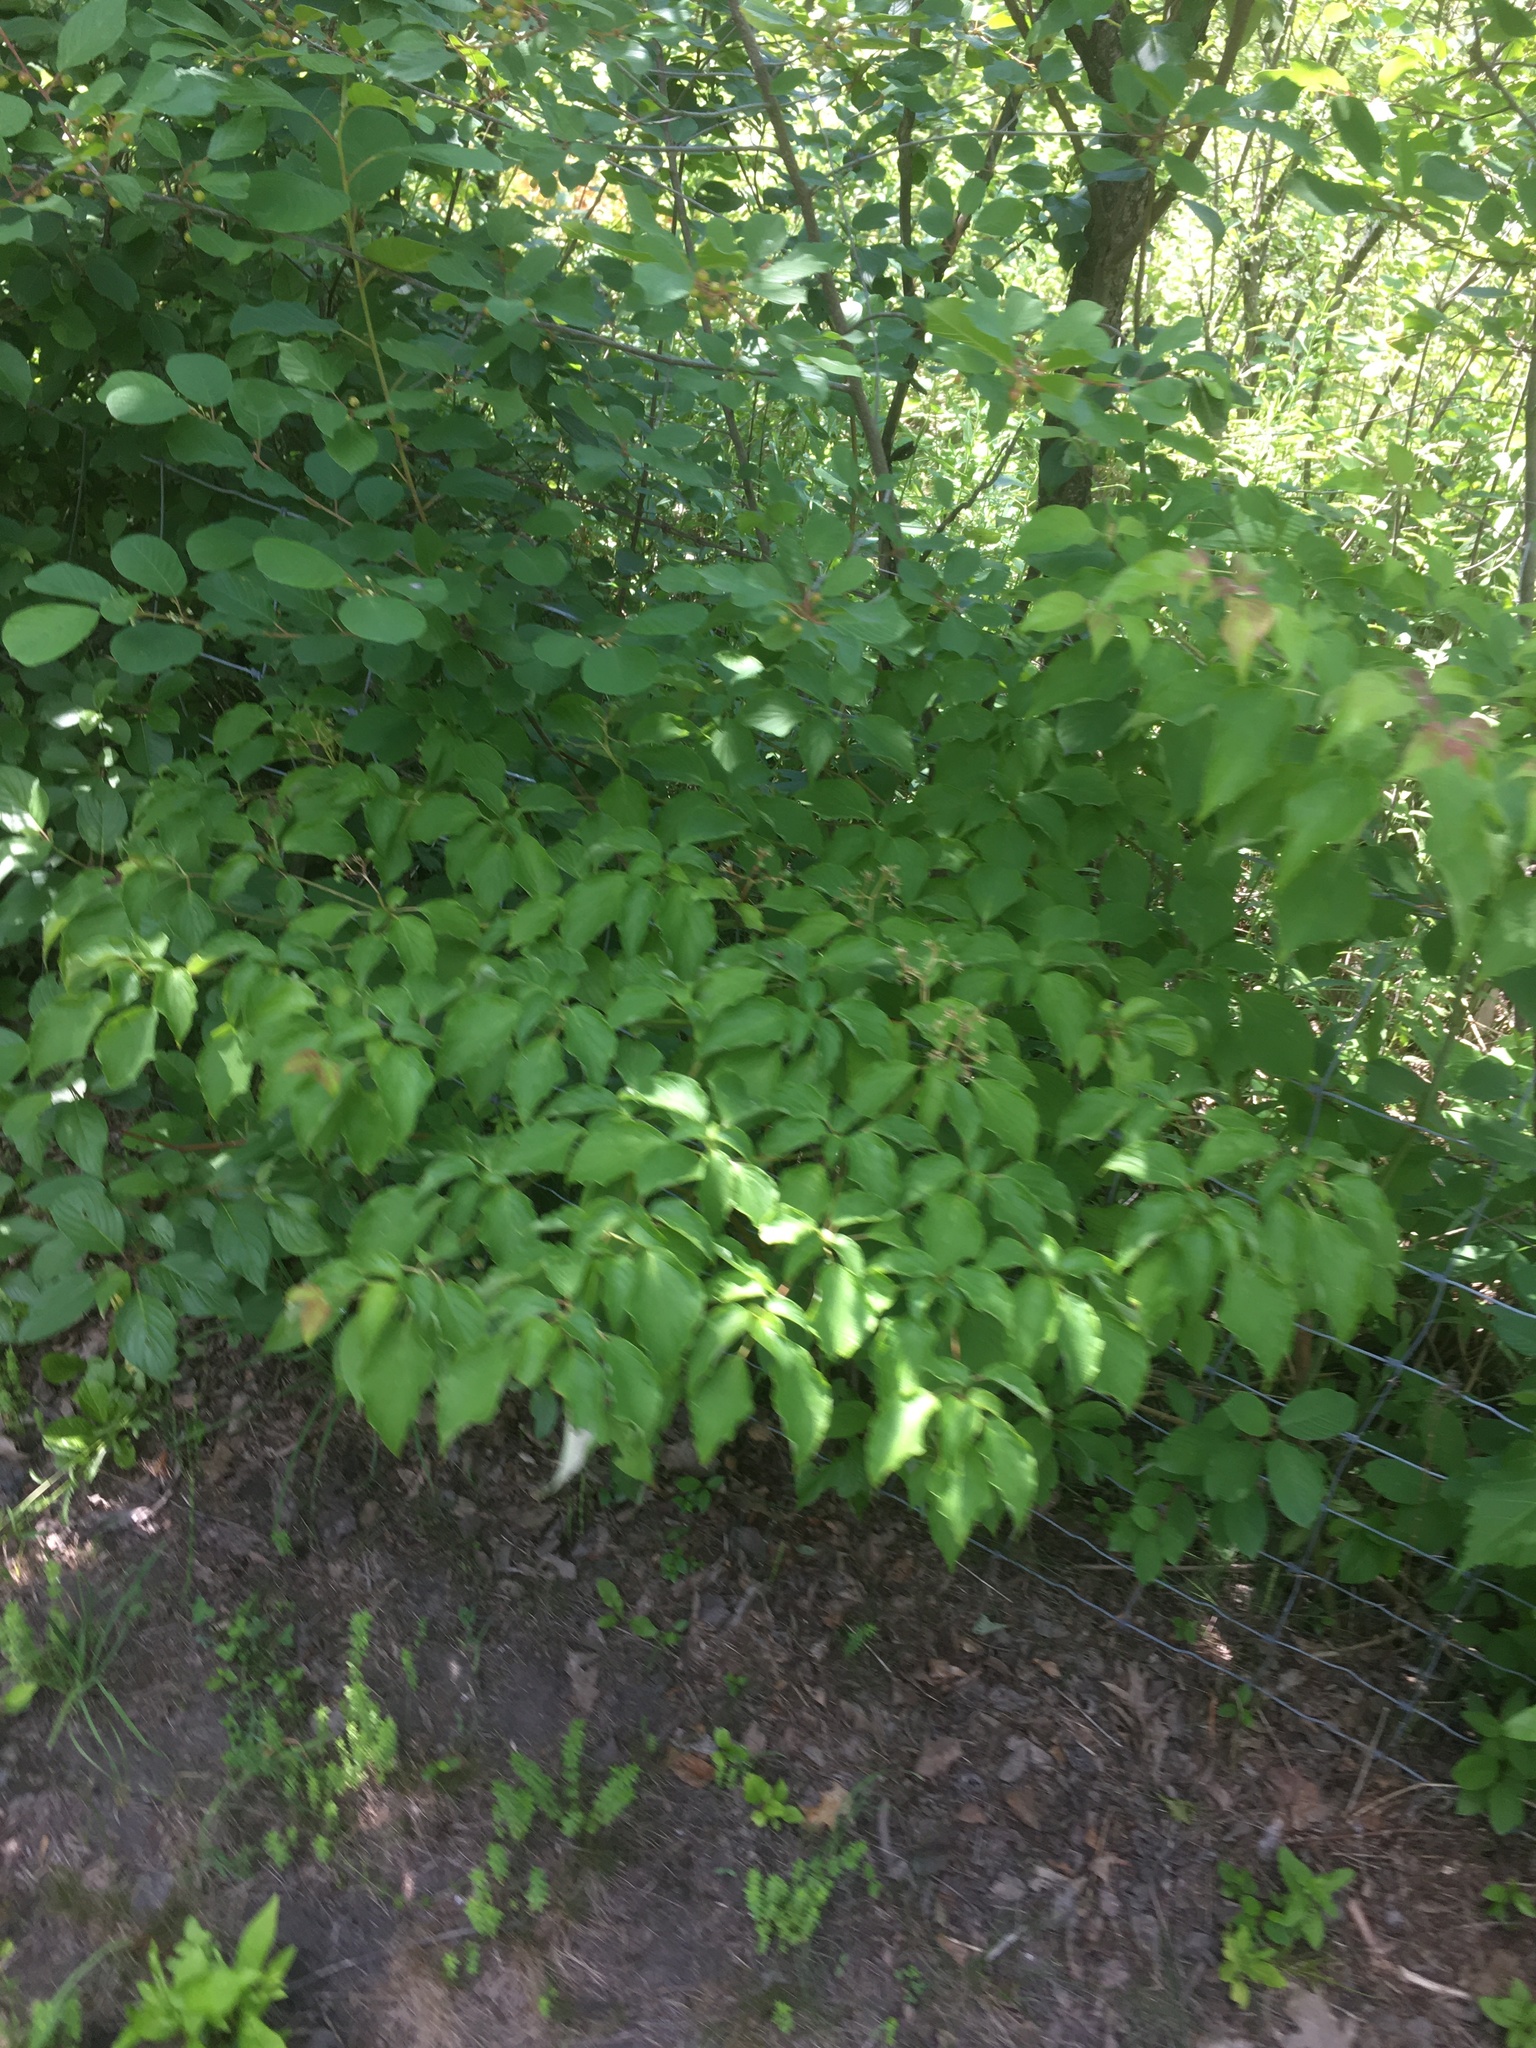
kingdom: Plantae
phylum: Tracheophyta
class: Magnoliopsida
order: Cornales
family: Cornaceae
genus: Cornus
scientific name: Cornus alternifolia
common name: Pagoda dogwood
